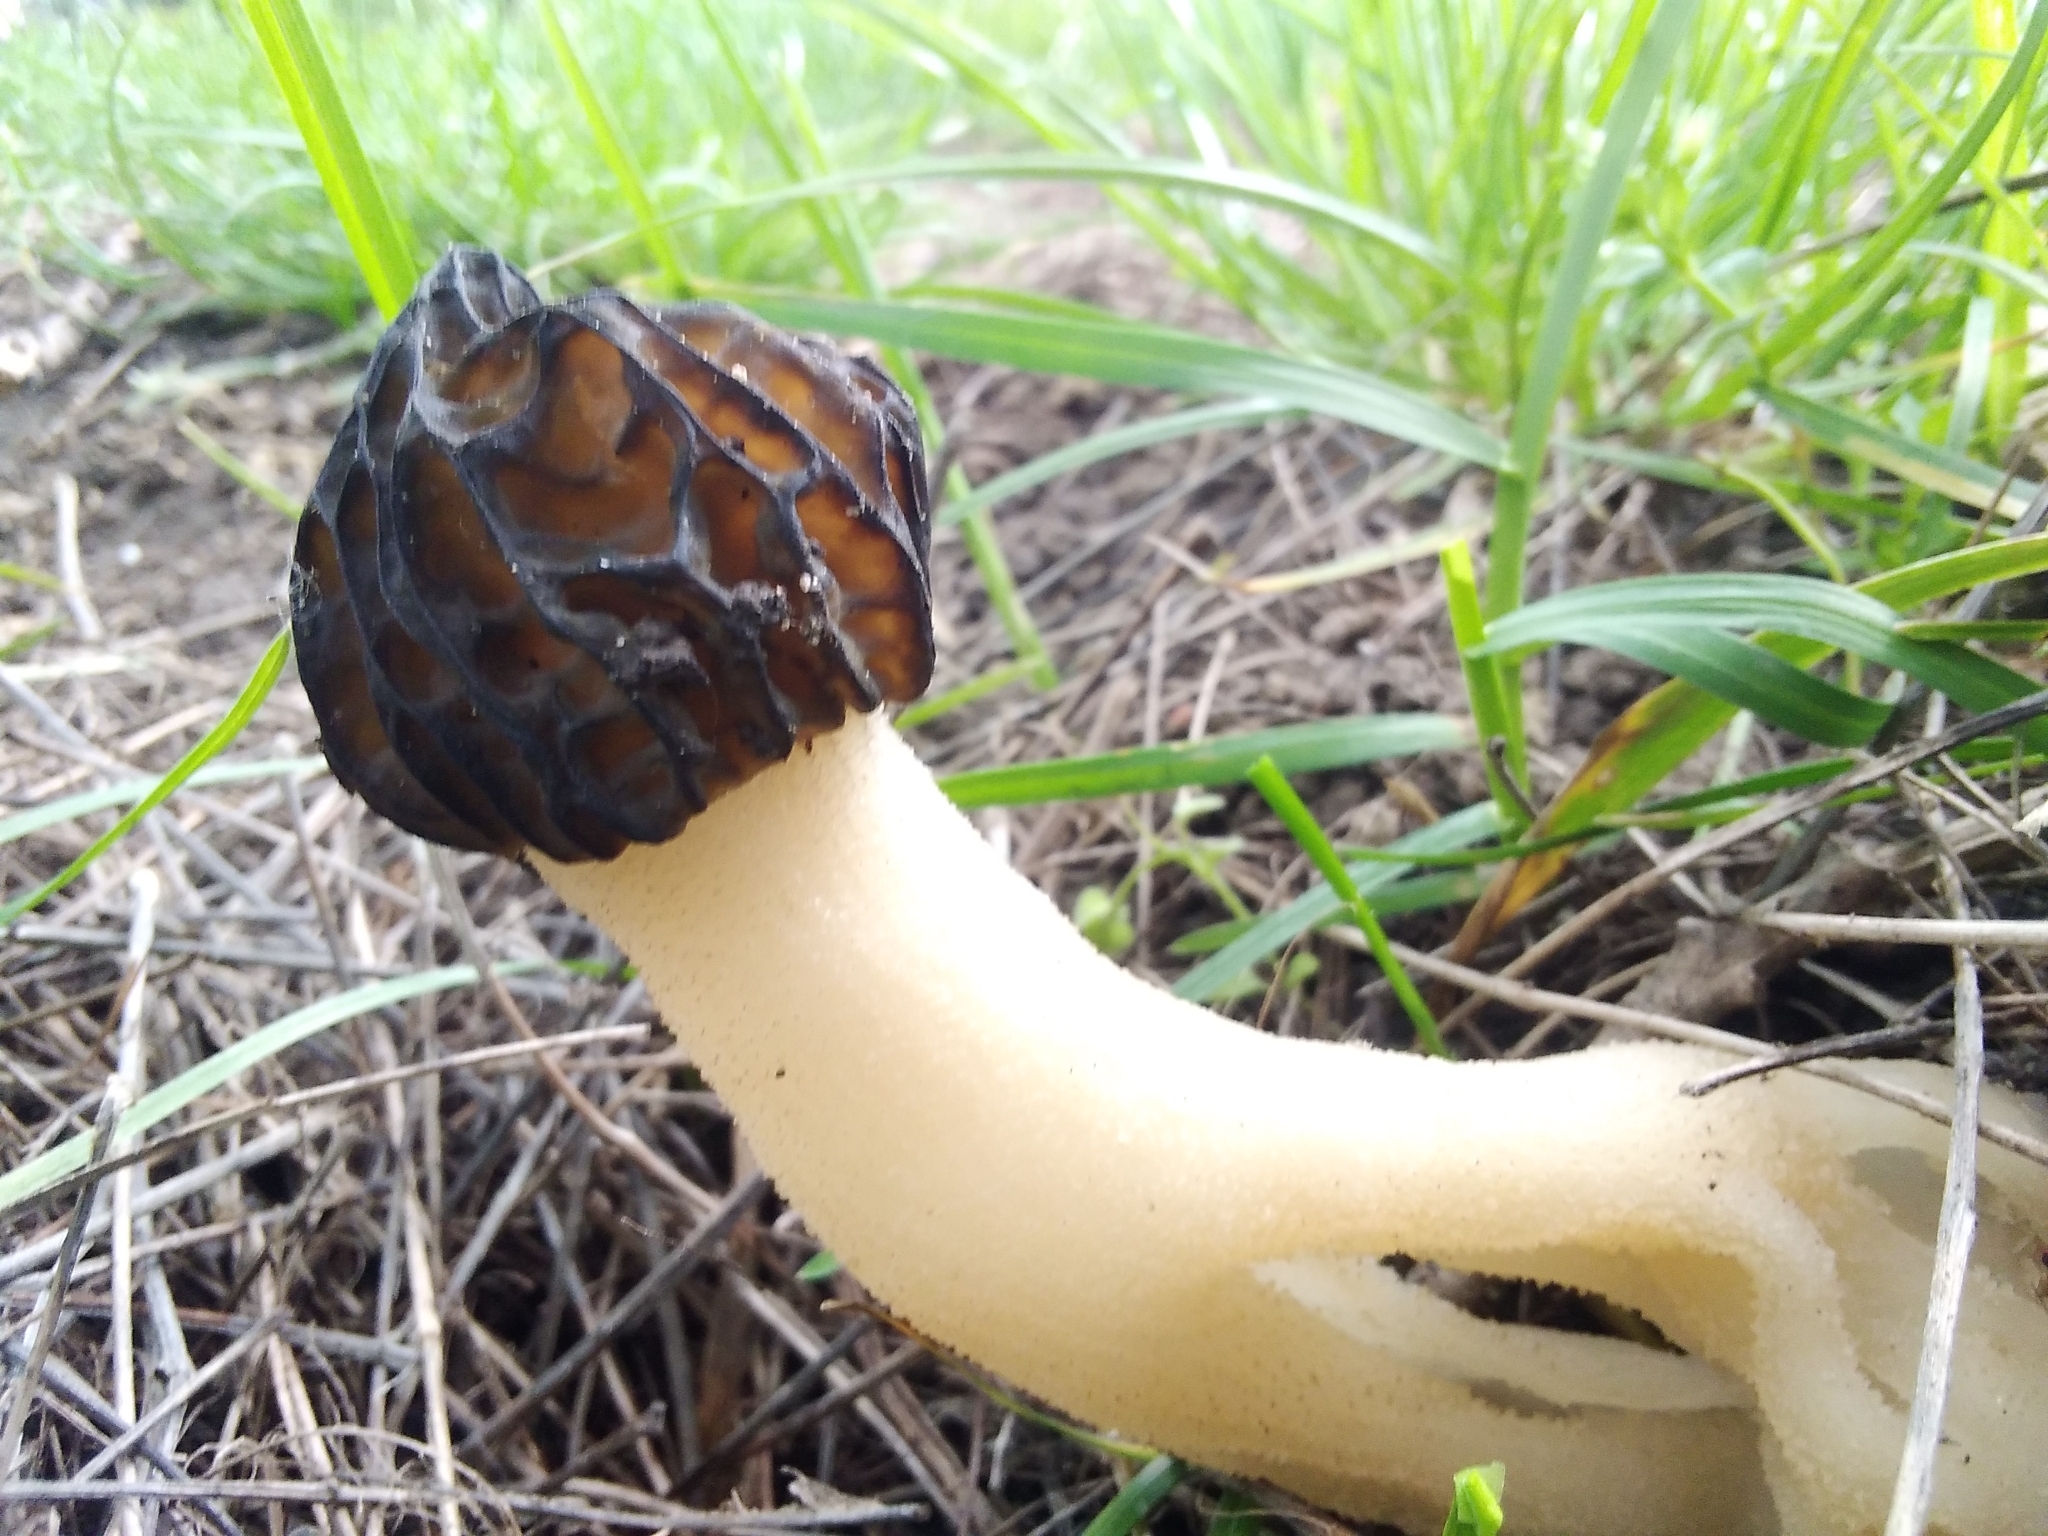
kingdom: Fungi
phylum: Ascomycota
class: Pezizomycetes
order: Pezizales
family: Morchellaceae
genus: Morchella
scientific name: Morchella semilibera
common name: Semifree morel
